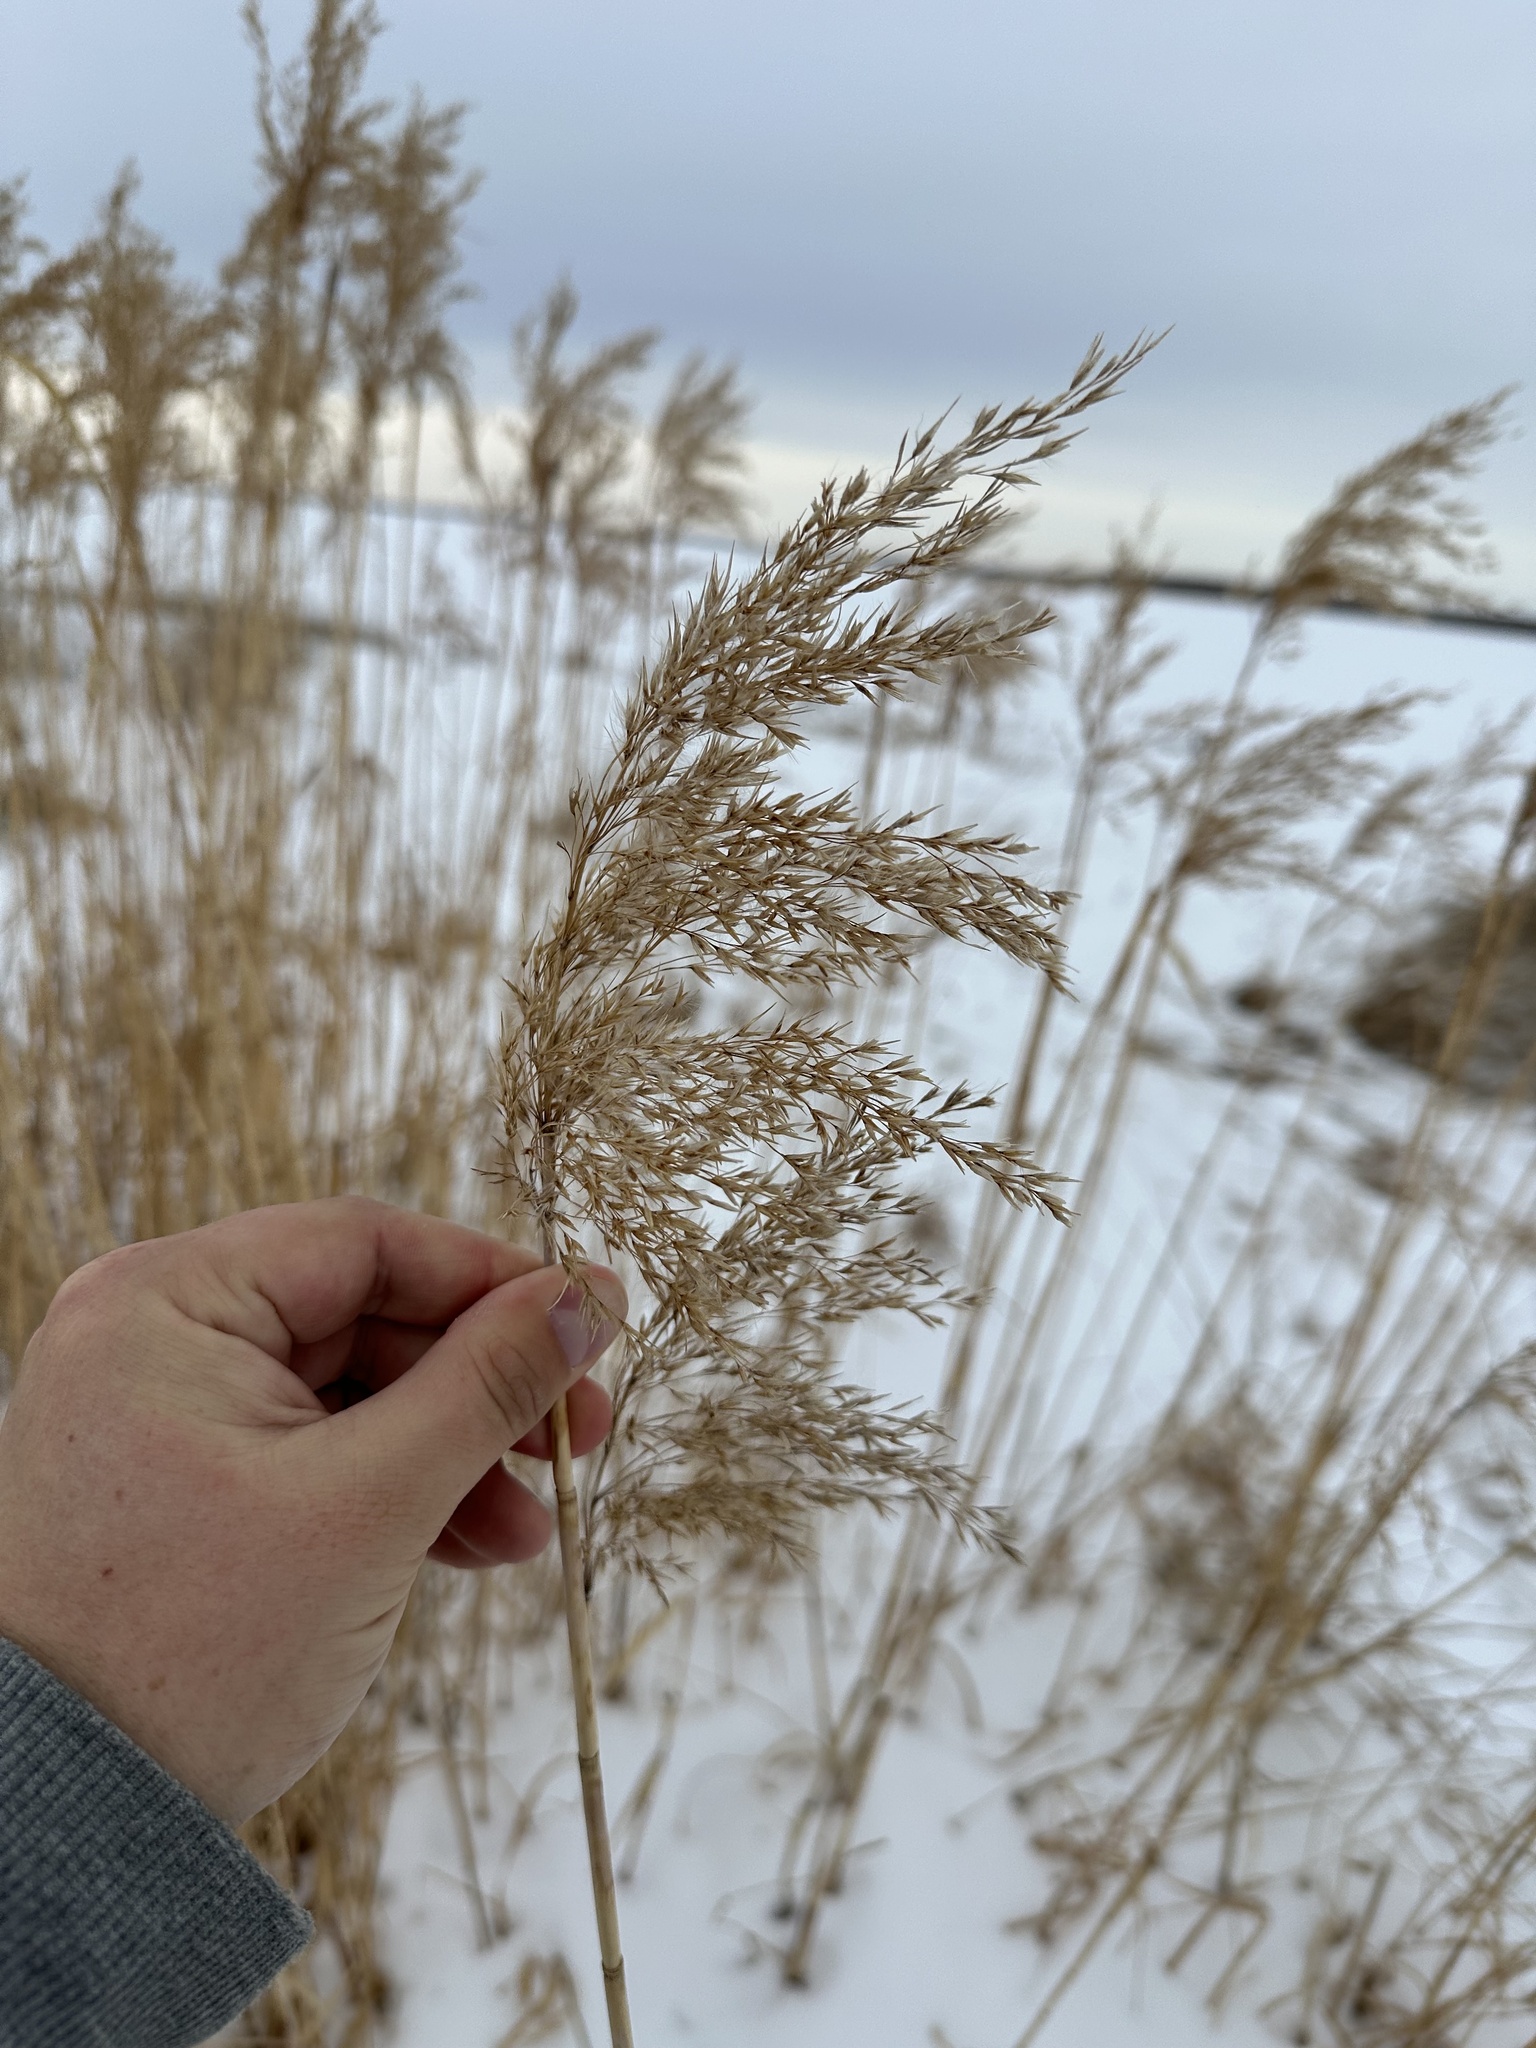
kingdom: Plantae
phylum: Tracheophyta
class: Liliopsida
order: Poales
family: Poaceae
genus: Phragmites
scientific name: Phragmites australis
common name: Common reed
